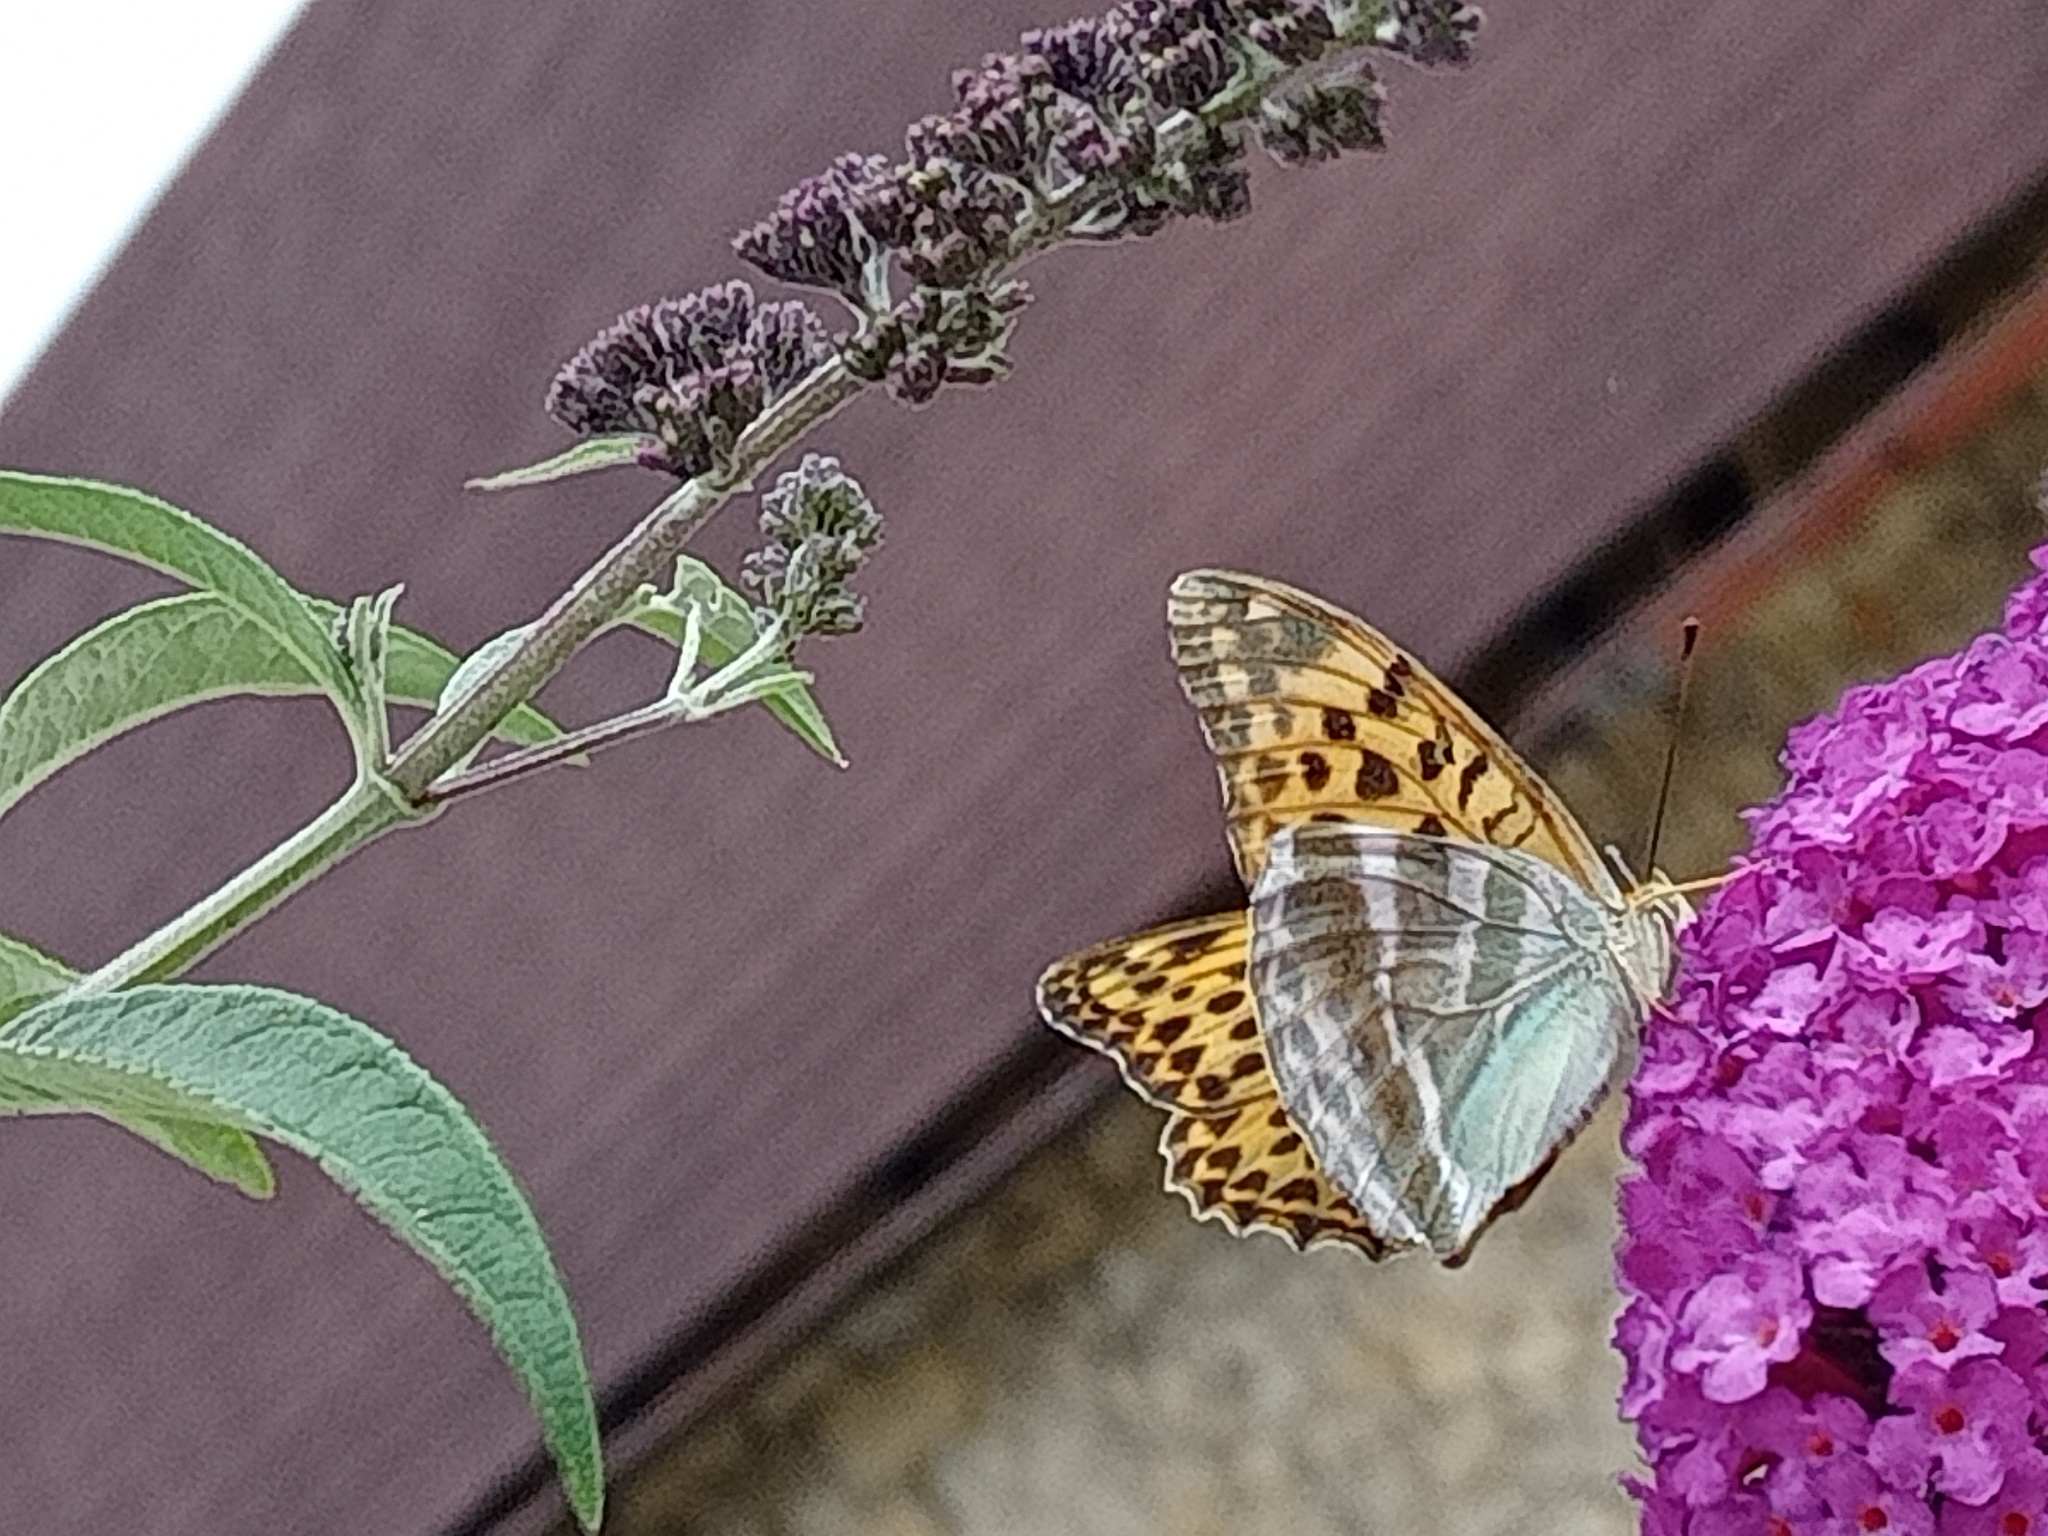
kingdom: Animalia
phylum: Arthropoda
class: Insecta
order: Lepidoptera
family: Nymphalidae
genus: Argynnis
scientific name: Argynnis paphia
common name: Silver-washed fritillary
